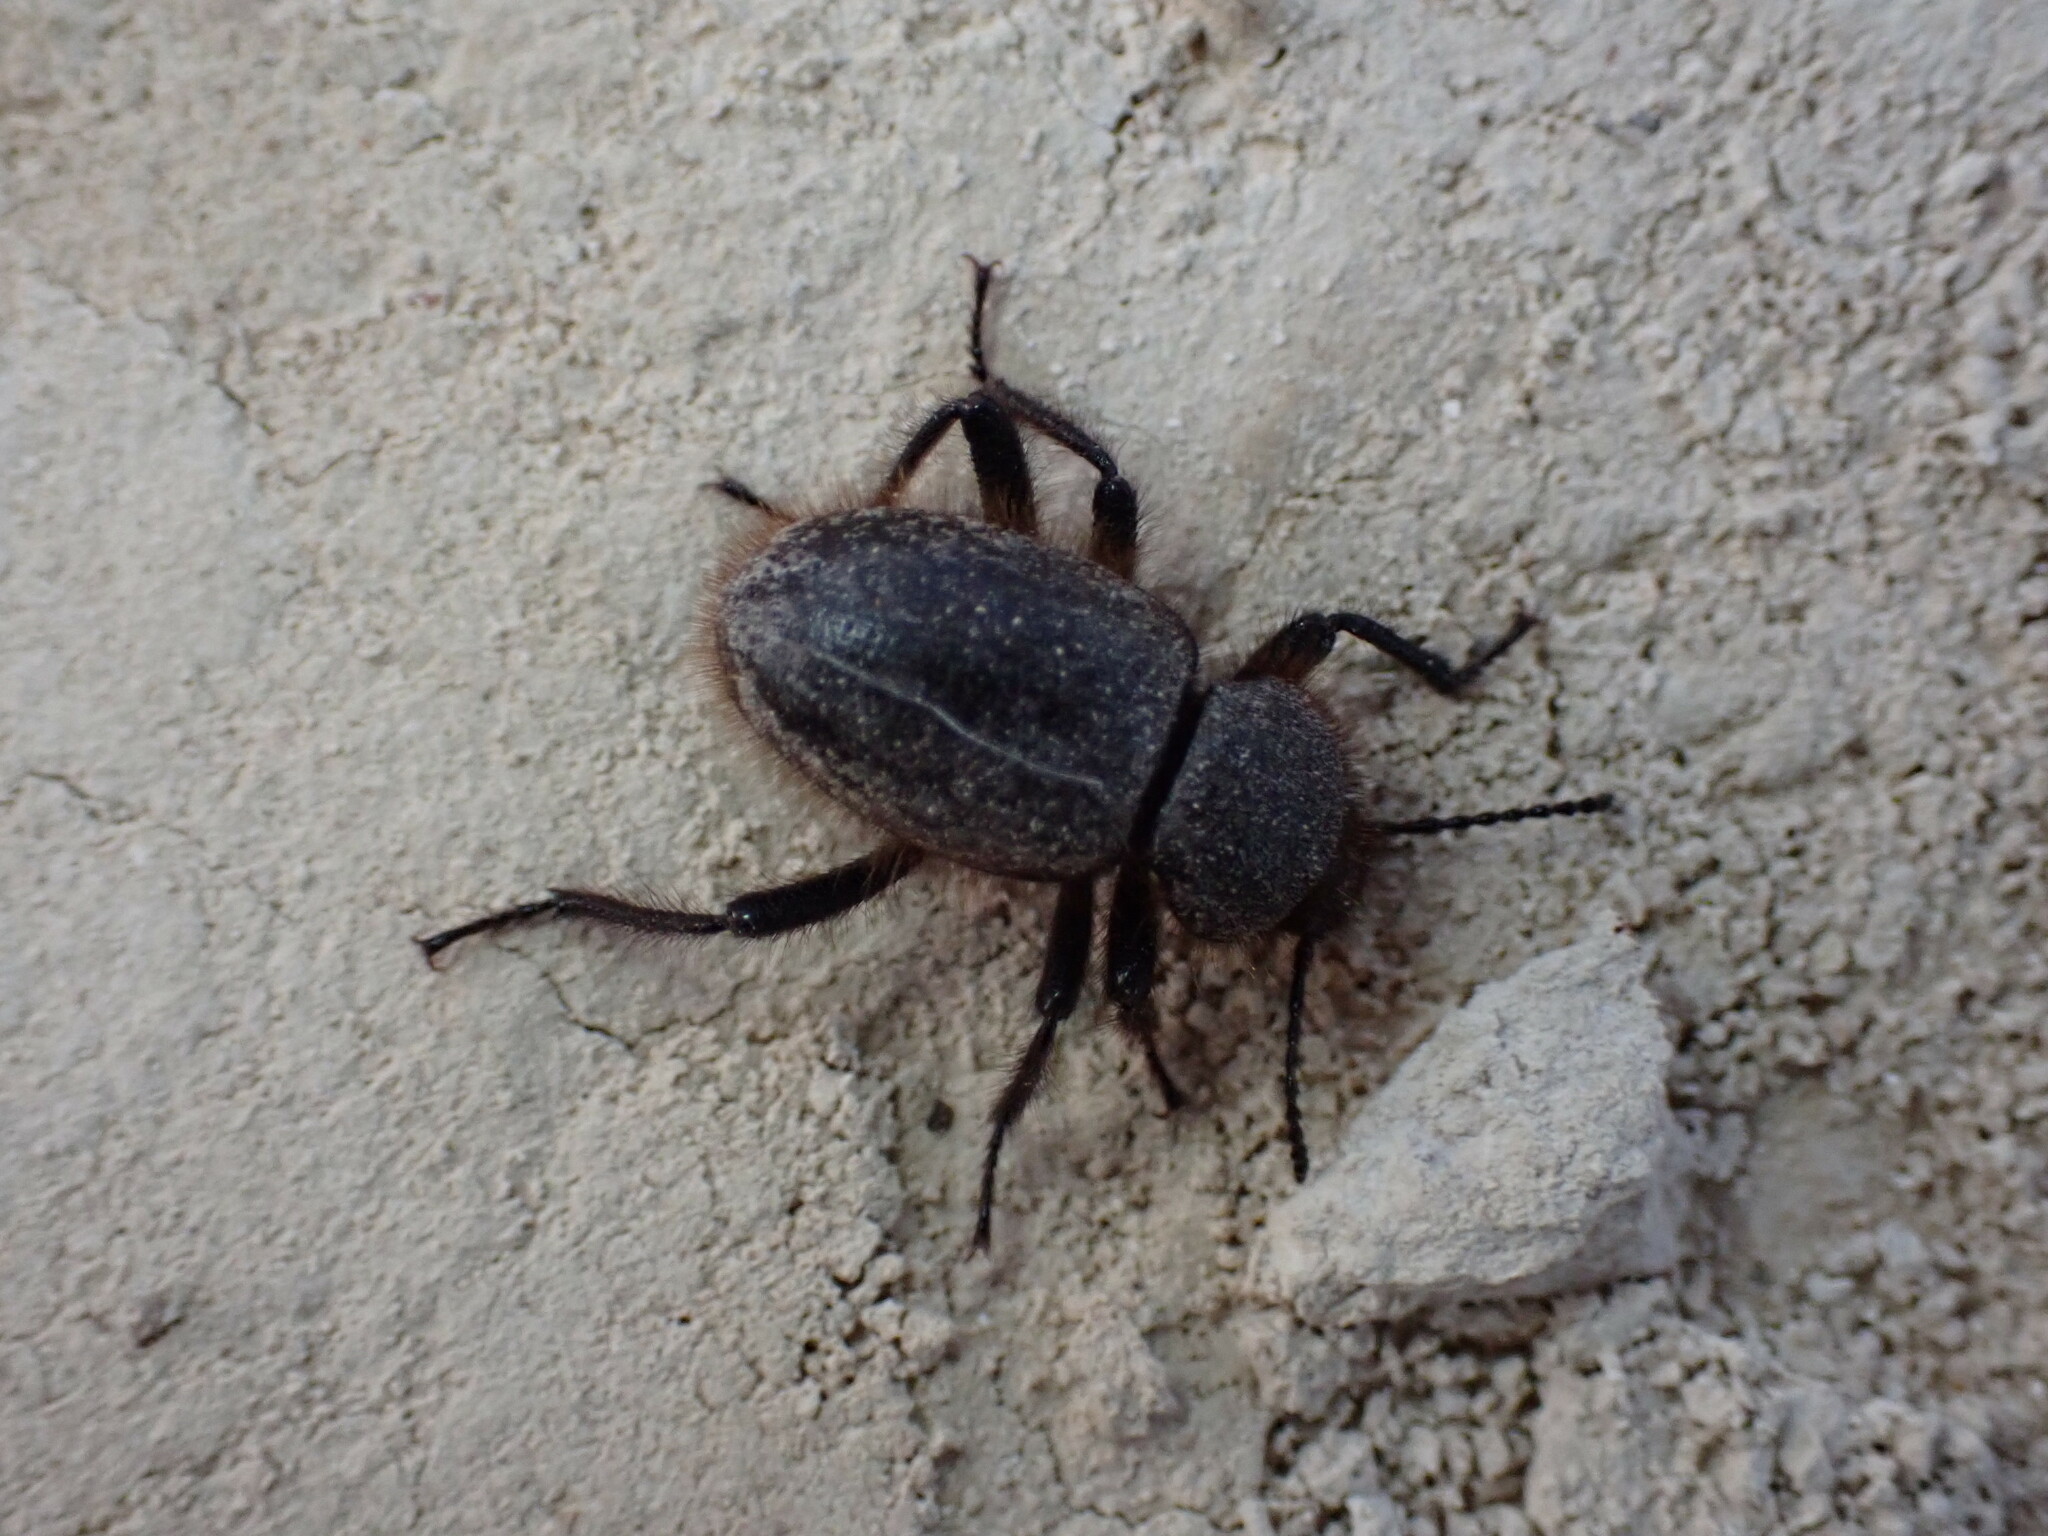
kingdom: Animalia
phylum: Arthropoda
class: Insecta
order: Coleoptera
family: Tenebrionidae
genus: Eleodes
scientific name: Eleodes osculans
